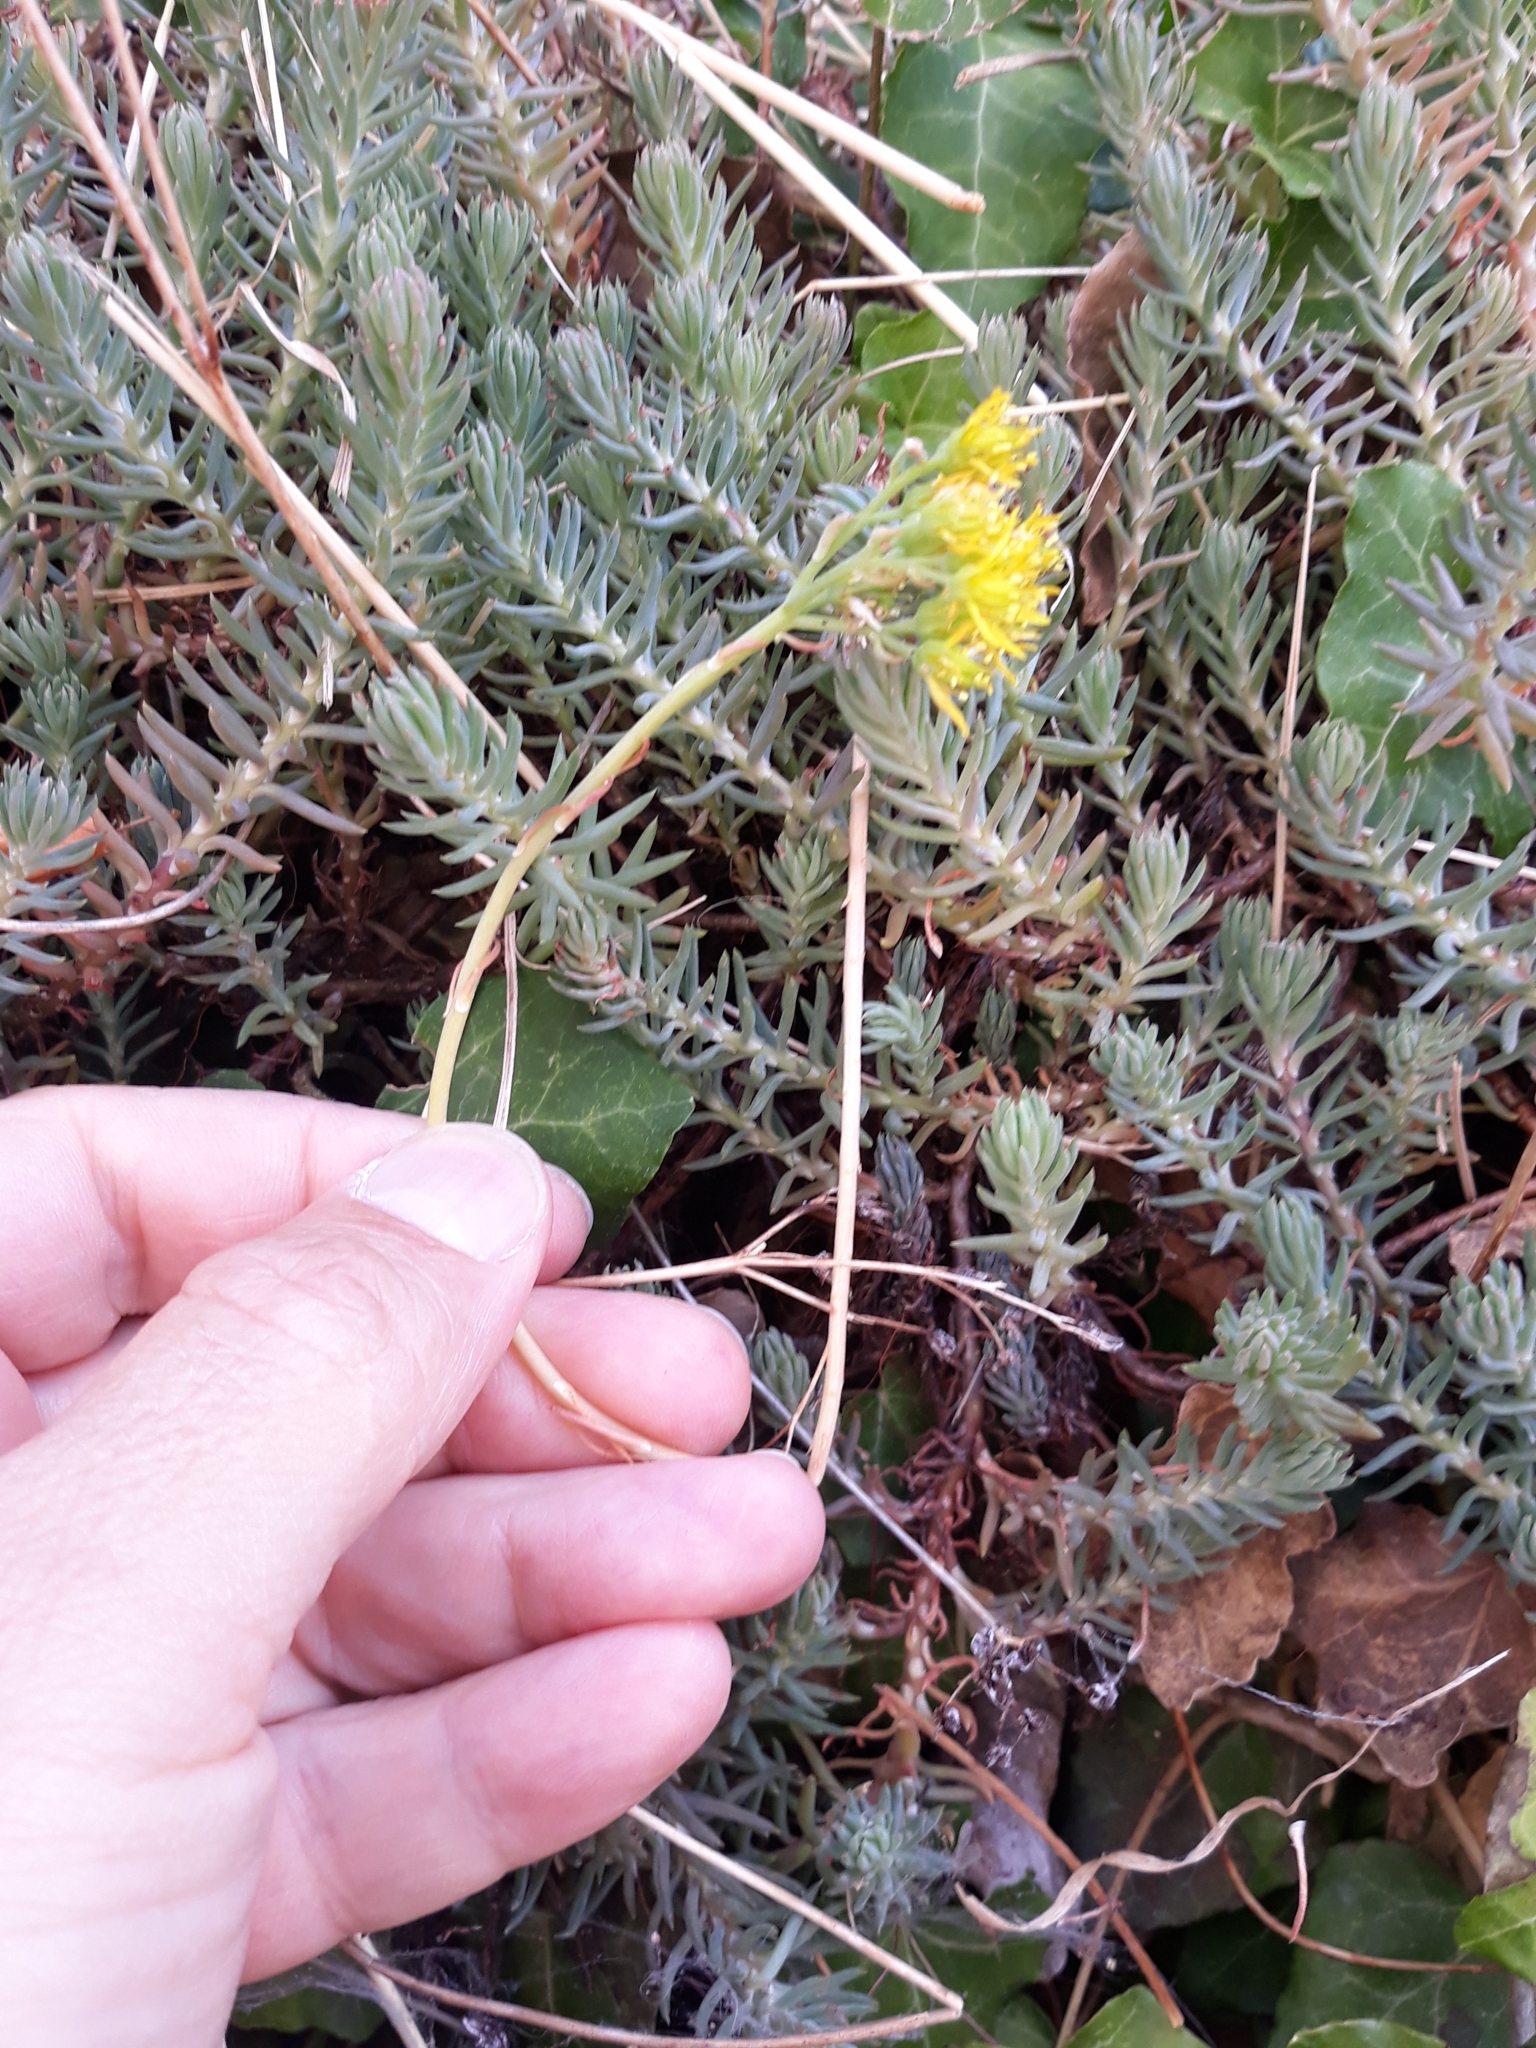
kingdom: Plantae
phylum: Tracheophyta
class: Magnoliopsida
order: Saxifragales
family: Crassulaceae
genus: Petrosedum
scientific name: Petrosedum rupestre
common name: Jenny's stonecrop
